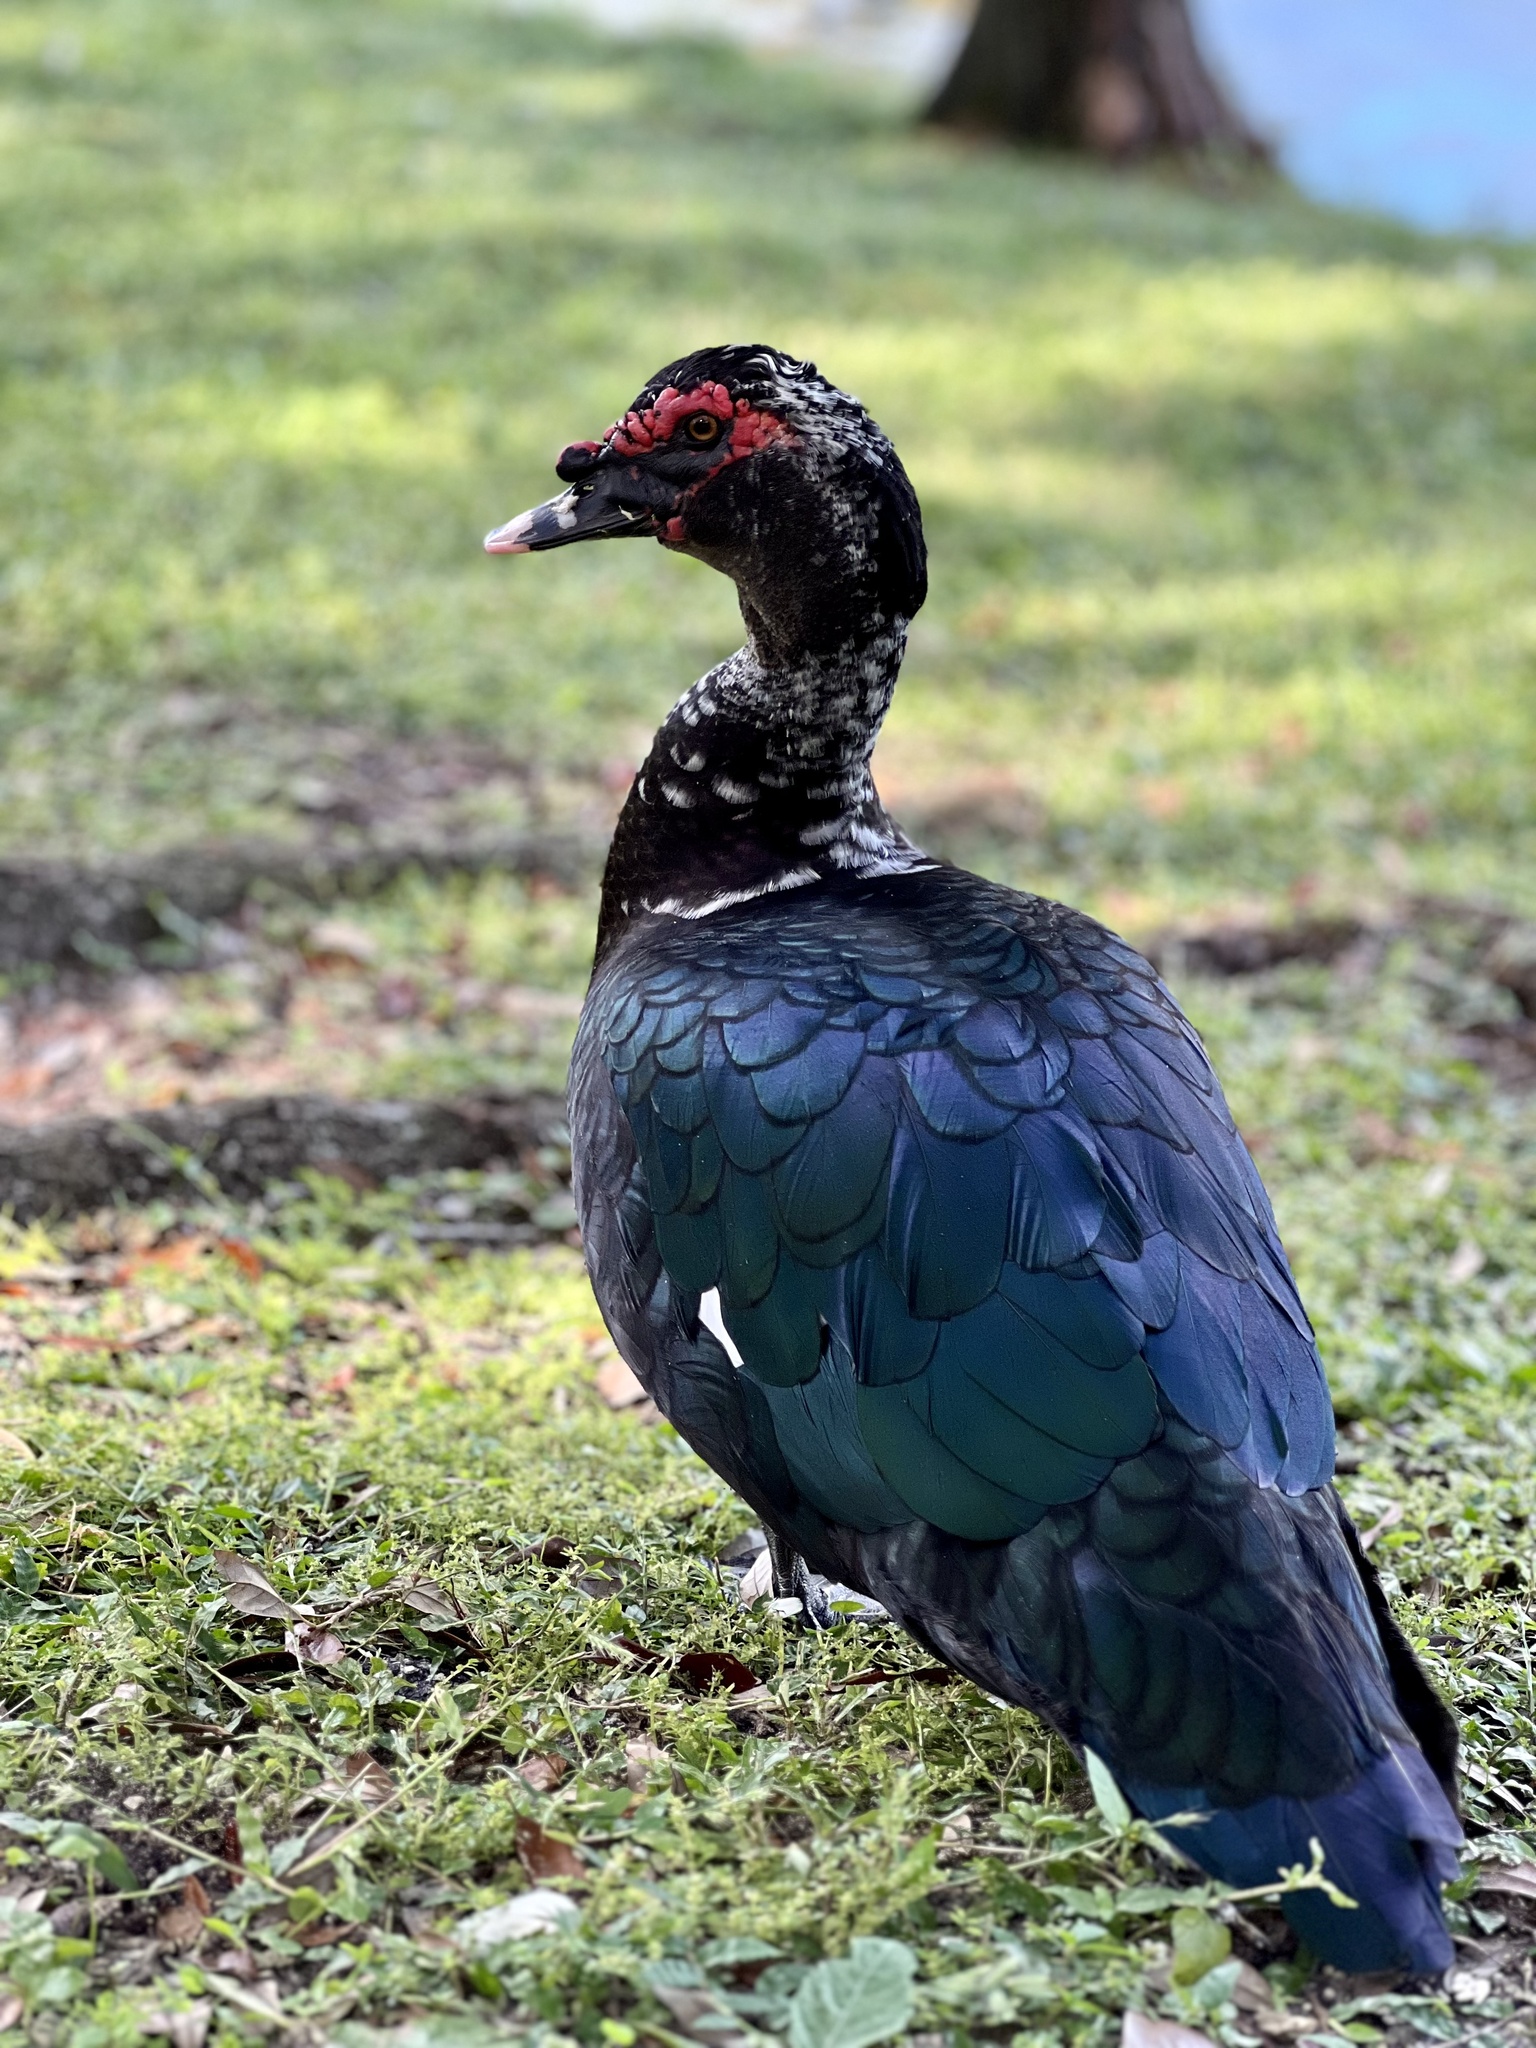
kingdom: Animalia
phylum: Chordata
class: Aves
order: Anseriformes
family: Anatidae
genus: Cairina
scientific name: Cairina moschata
